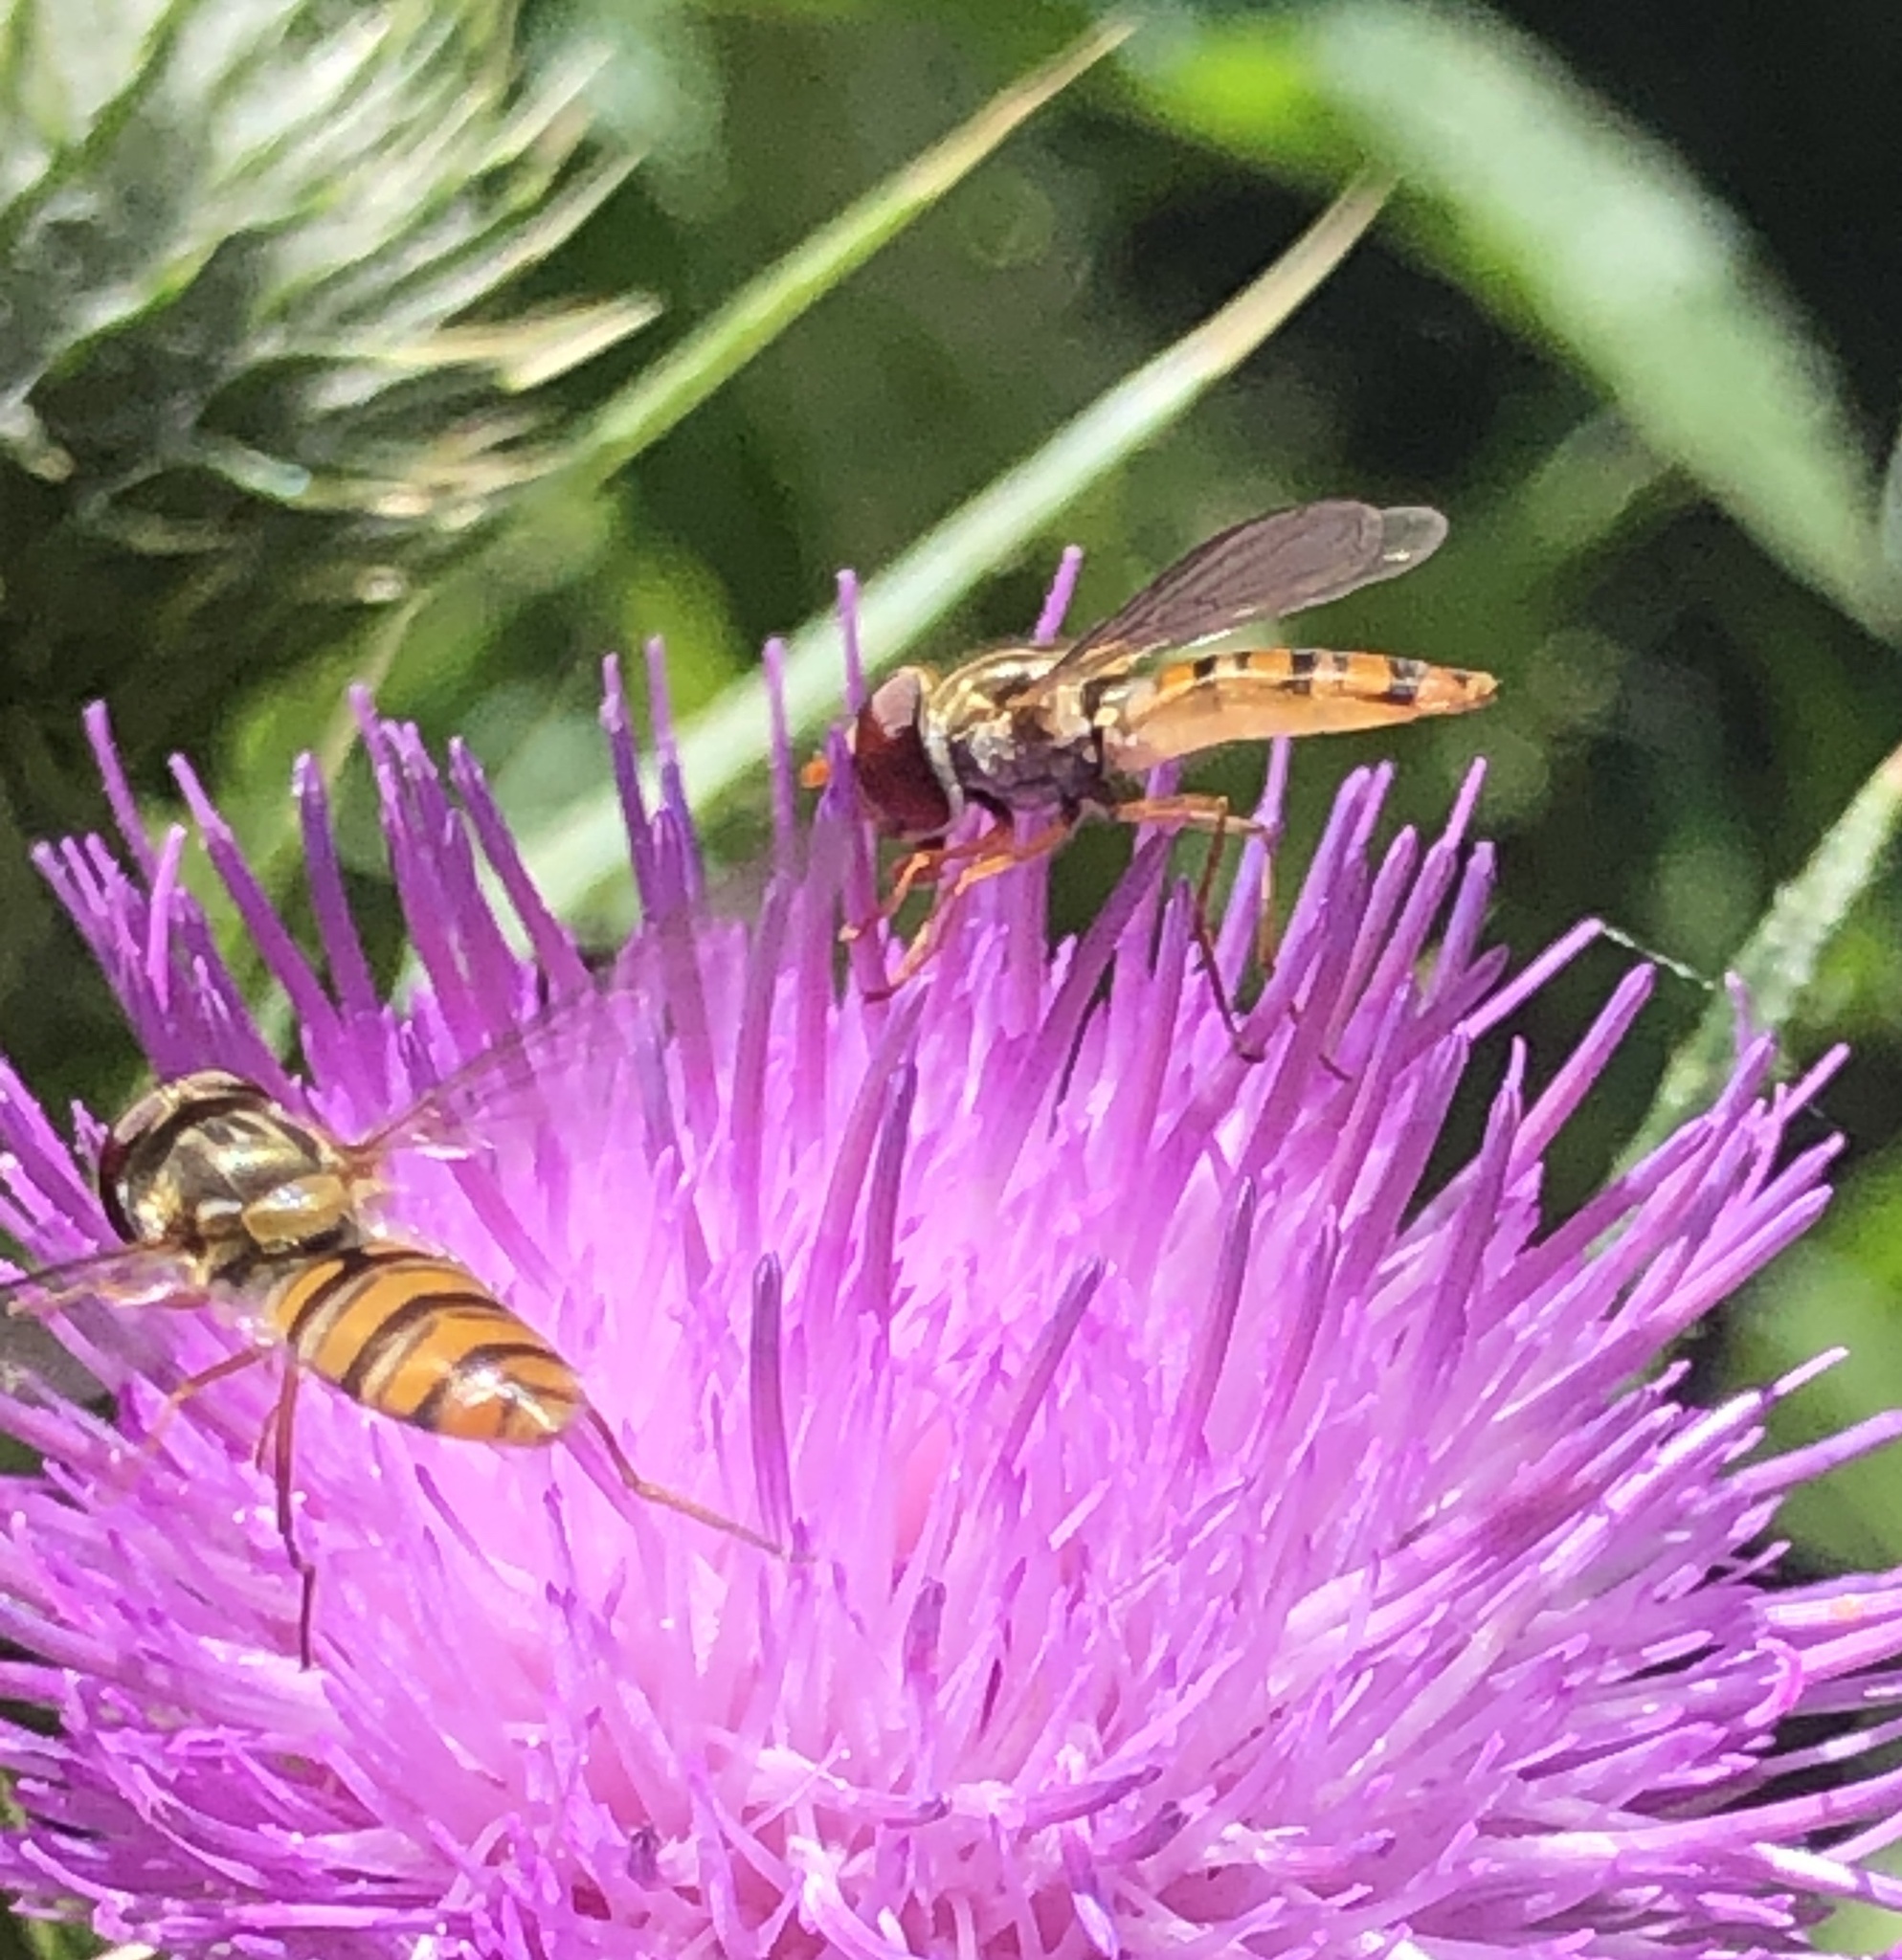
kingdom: Animalia
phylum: Arthropoda
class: Insecta
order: Diptera
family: Syrphidae
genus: Episyrphus
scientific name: Episyrphus balteatus
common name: Marmalade hoverfly
